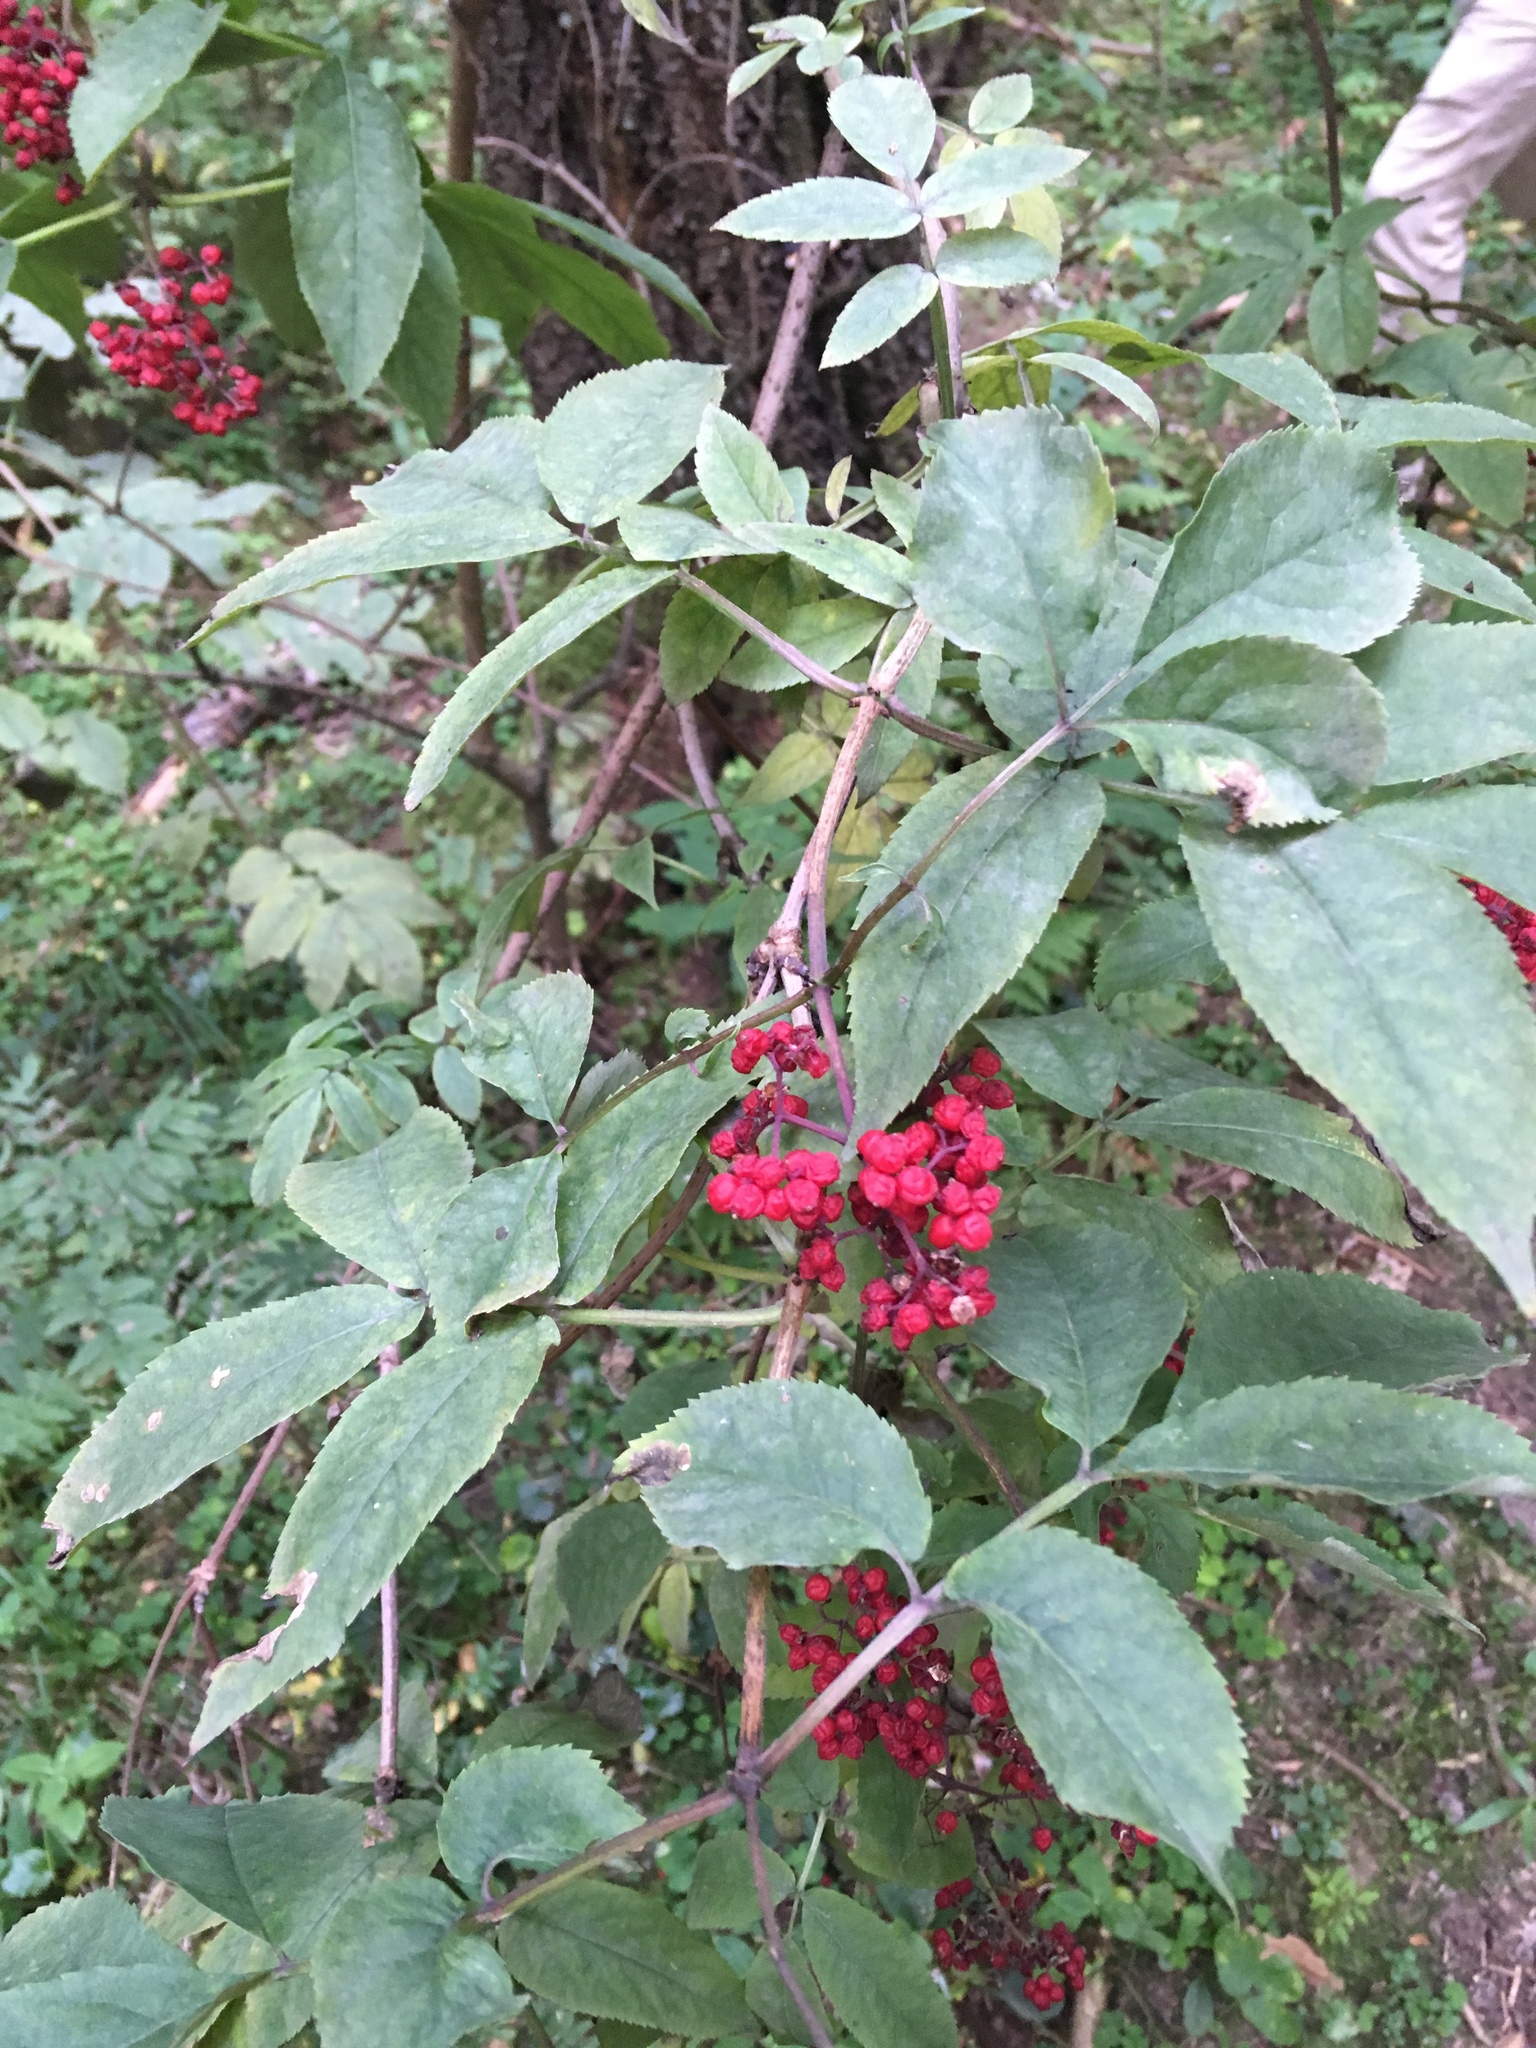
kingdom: Plantae
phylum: Tracheophyta
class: Magnoliopsida
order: Dipsacales
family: Viburnaceae
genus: Sambucus
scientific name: Sambucus racemosa
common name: Red-berried elder
